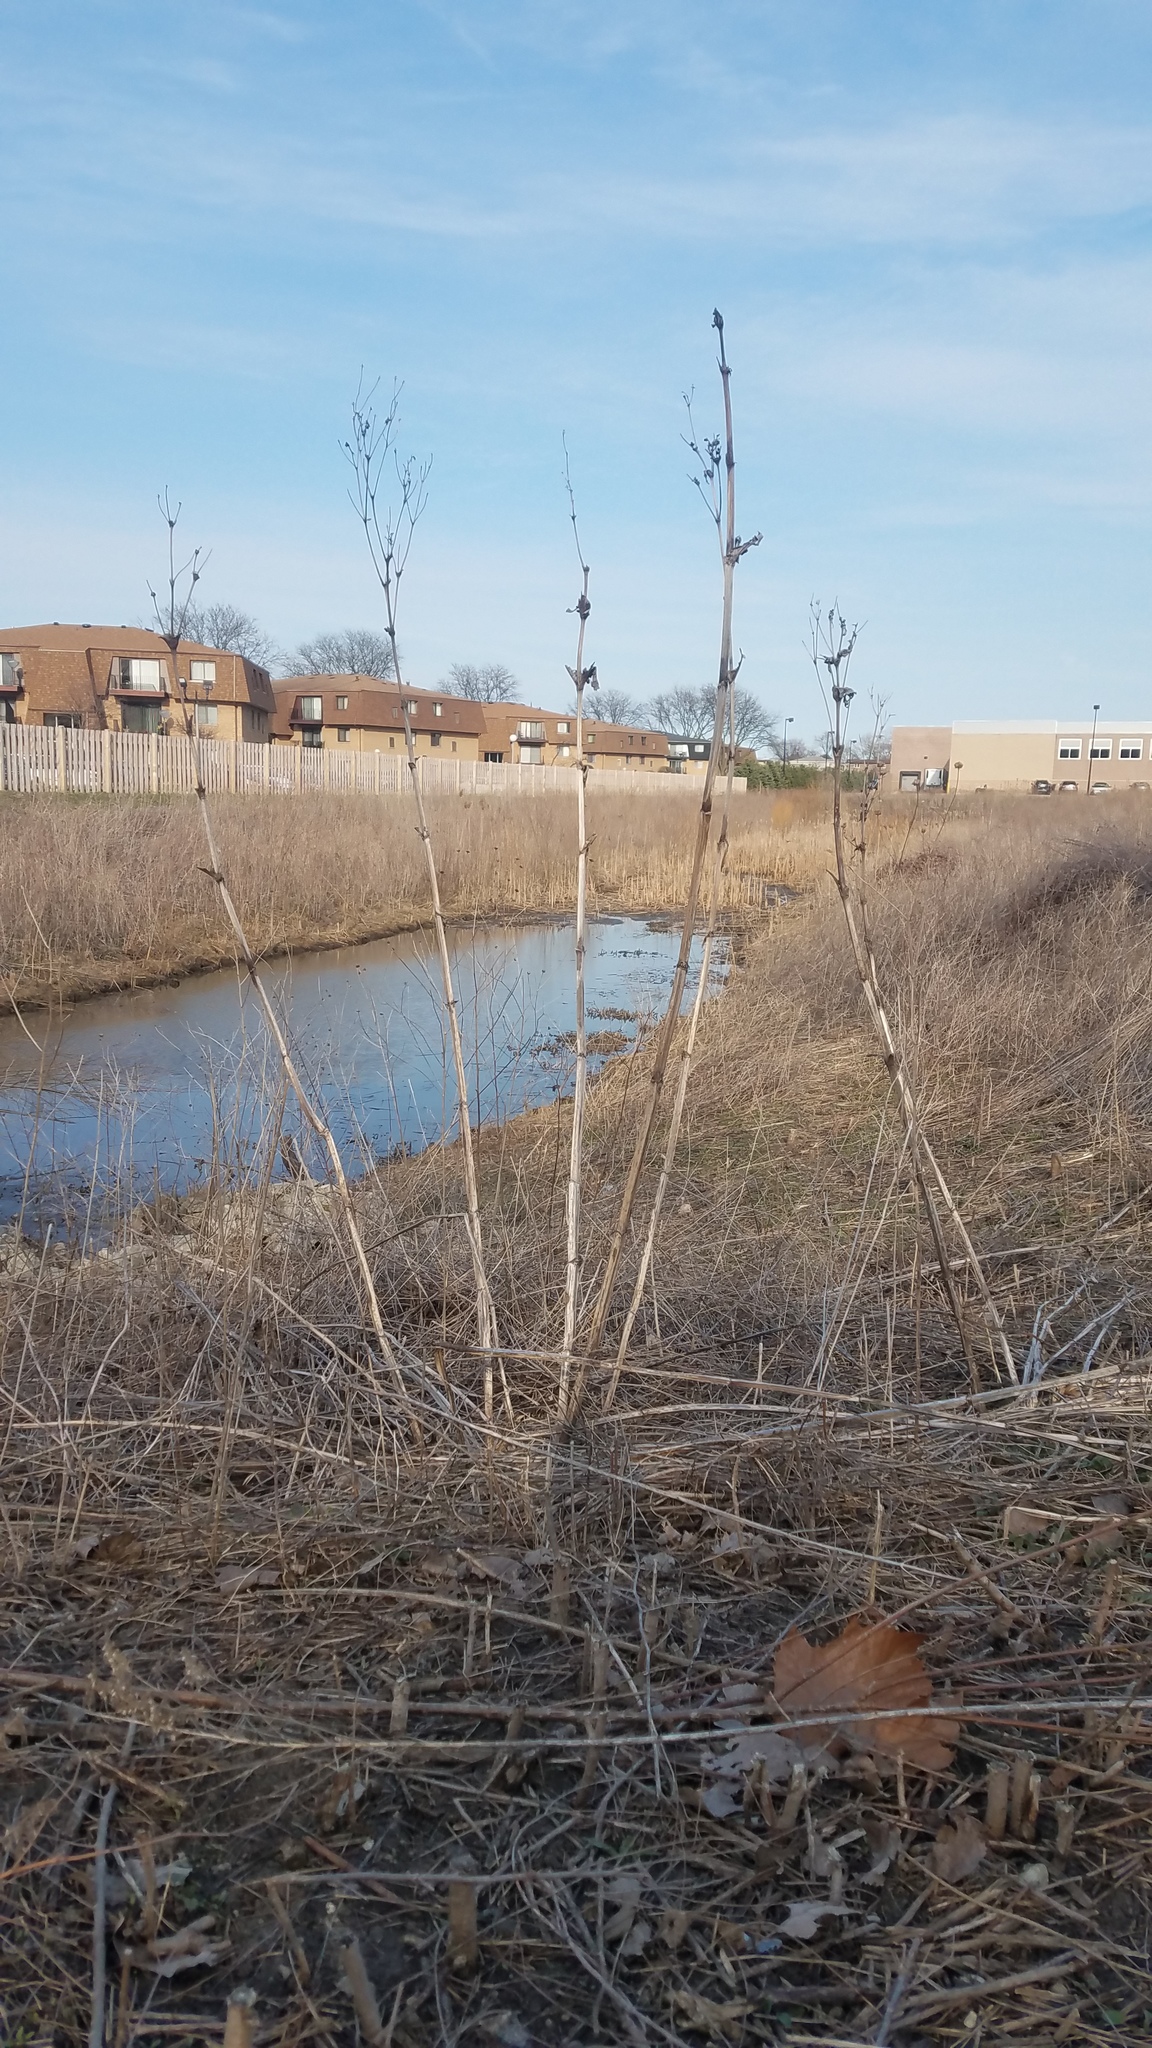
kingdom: Plantae
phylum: Tracheophyta
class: Magnoliopsida
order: Asterales
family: Asteraceae
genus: Silphium
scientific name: Silphium perfoliatum
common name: Cup-plant
